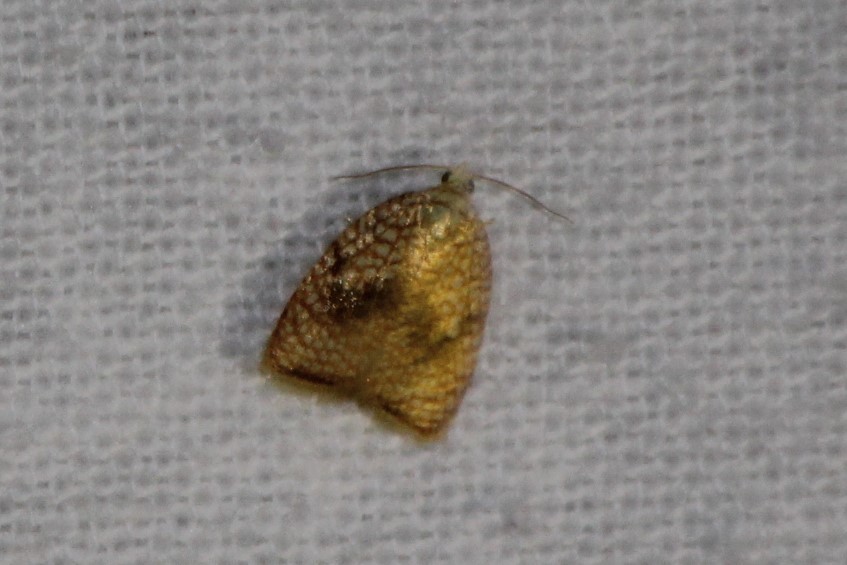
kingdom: Animalia
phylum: Arthropoda
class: Insecta
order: Lepidoptera
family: Tortricidae
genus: Acleris
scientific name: Acleris forsskaleana
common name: Maple button
